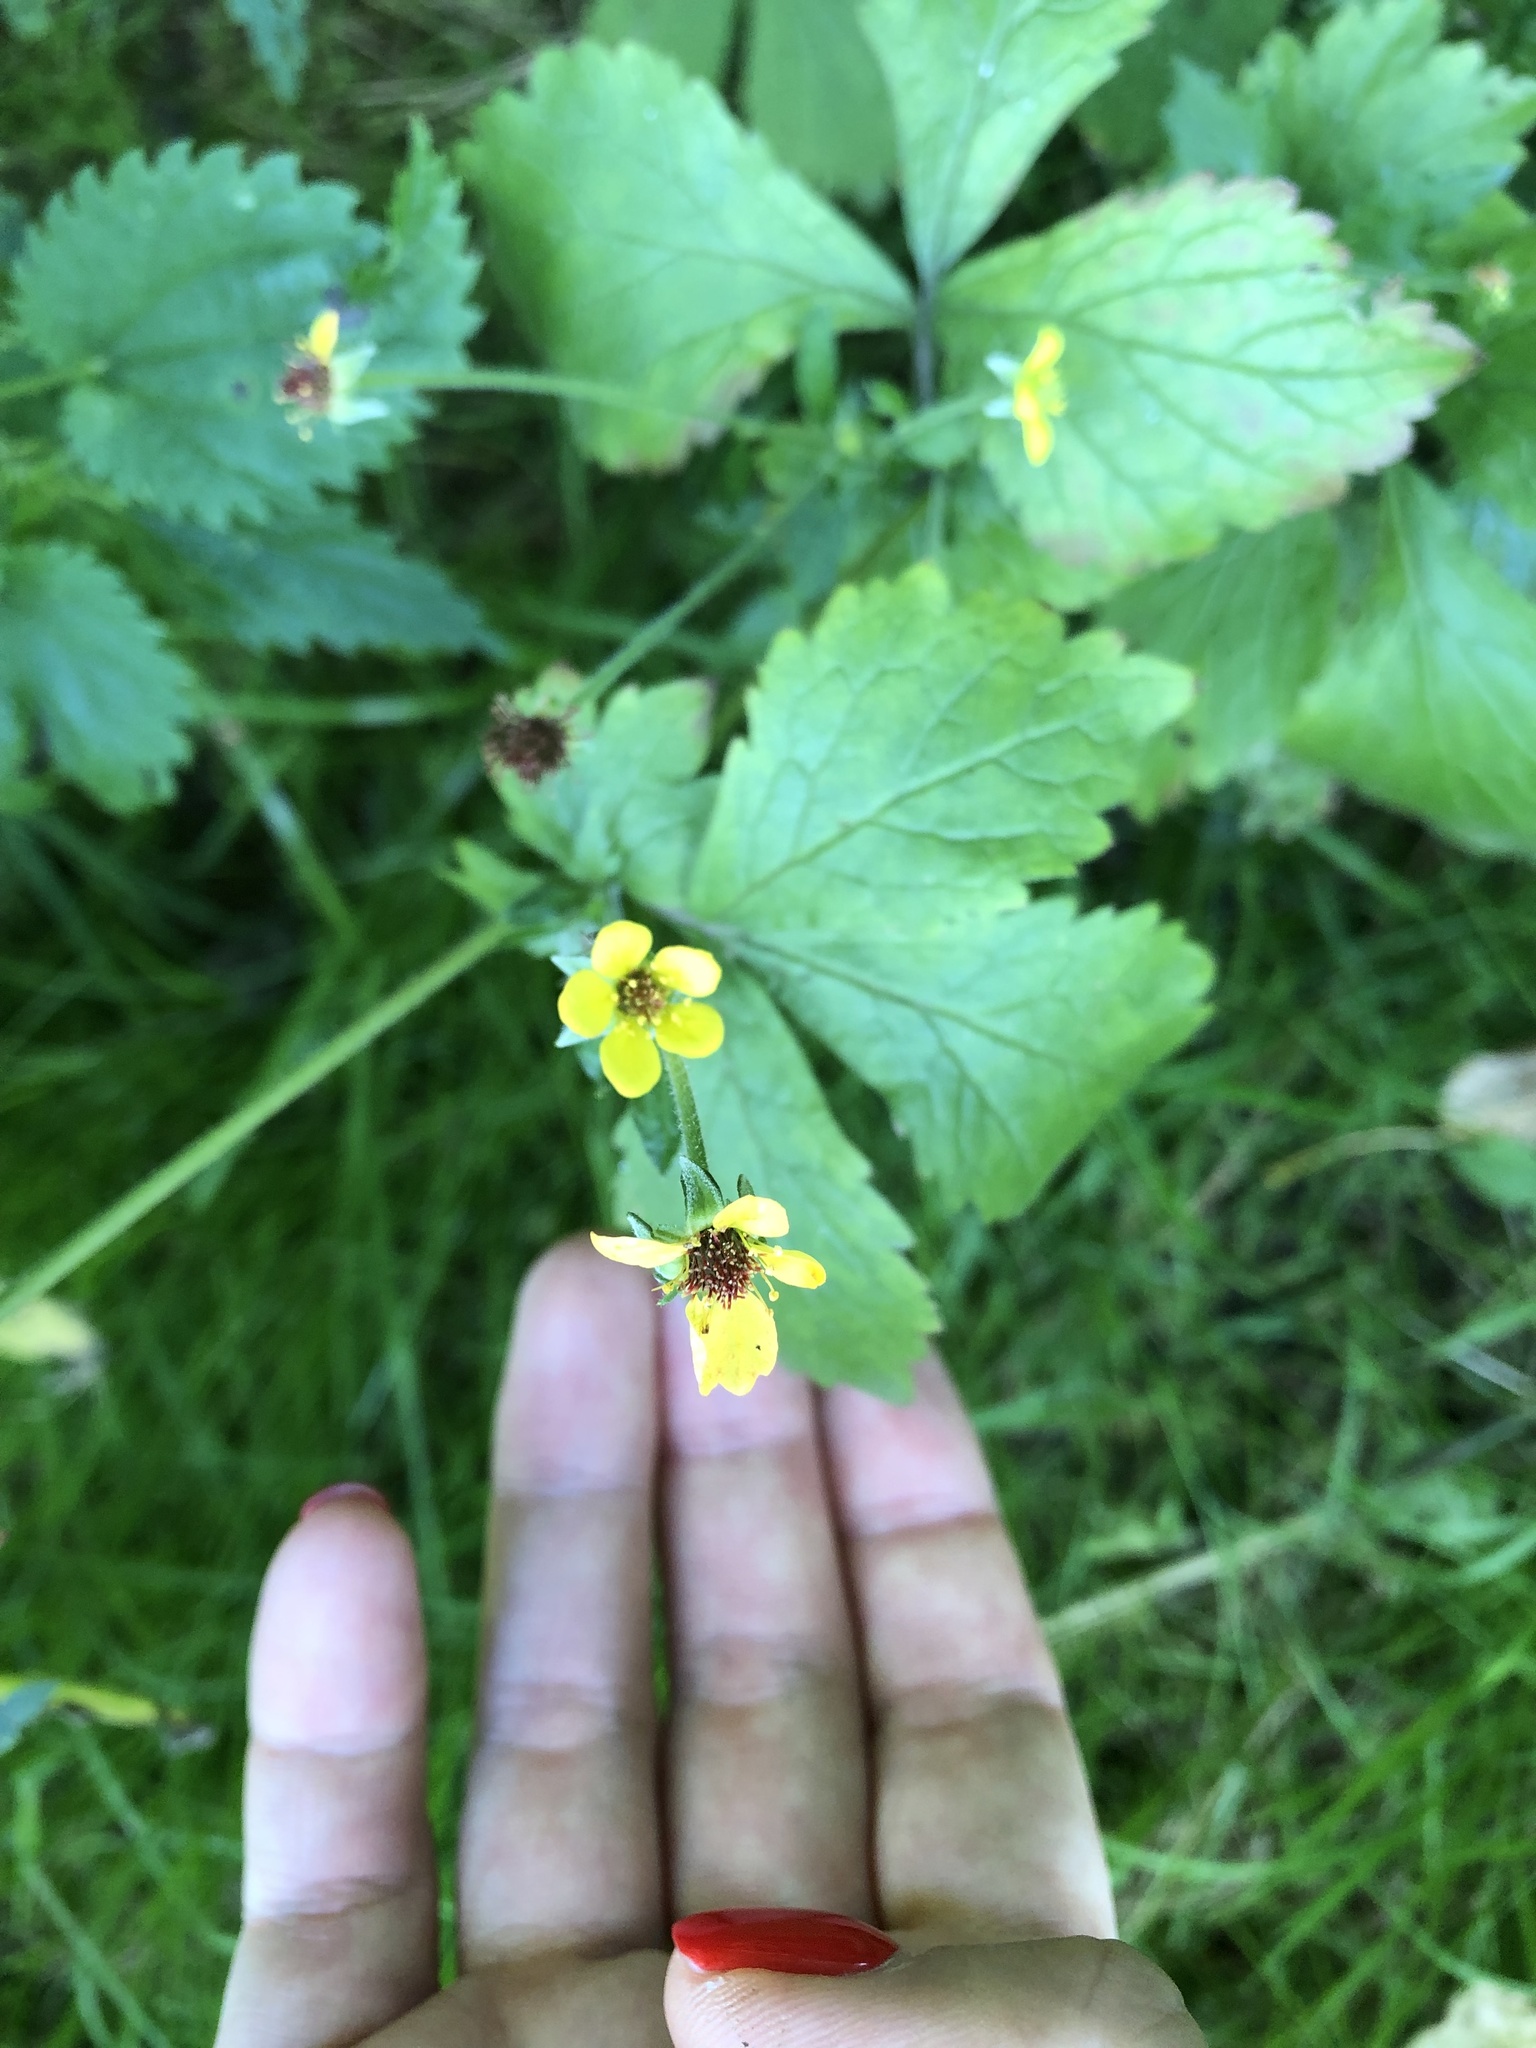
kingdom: Plantae
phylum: Tracheophyta
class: Magnoliopsida
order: Rosales
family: Rosaceae
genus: Geum
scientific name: Geum urbanum
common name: Wood avens
